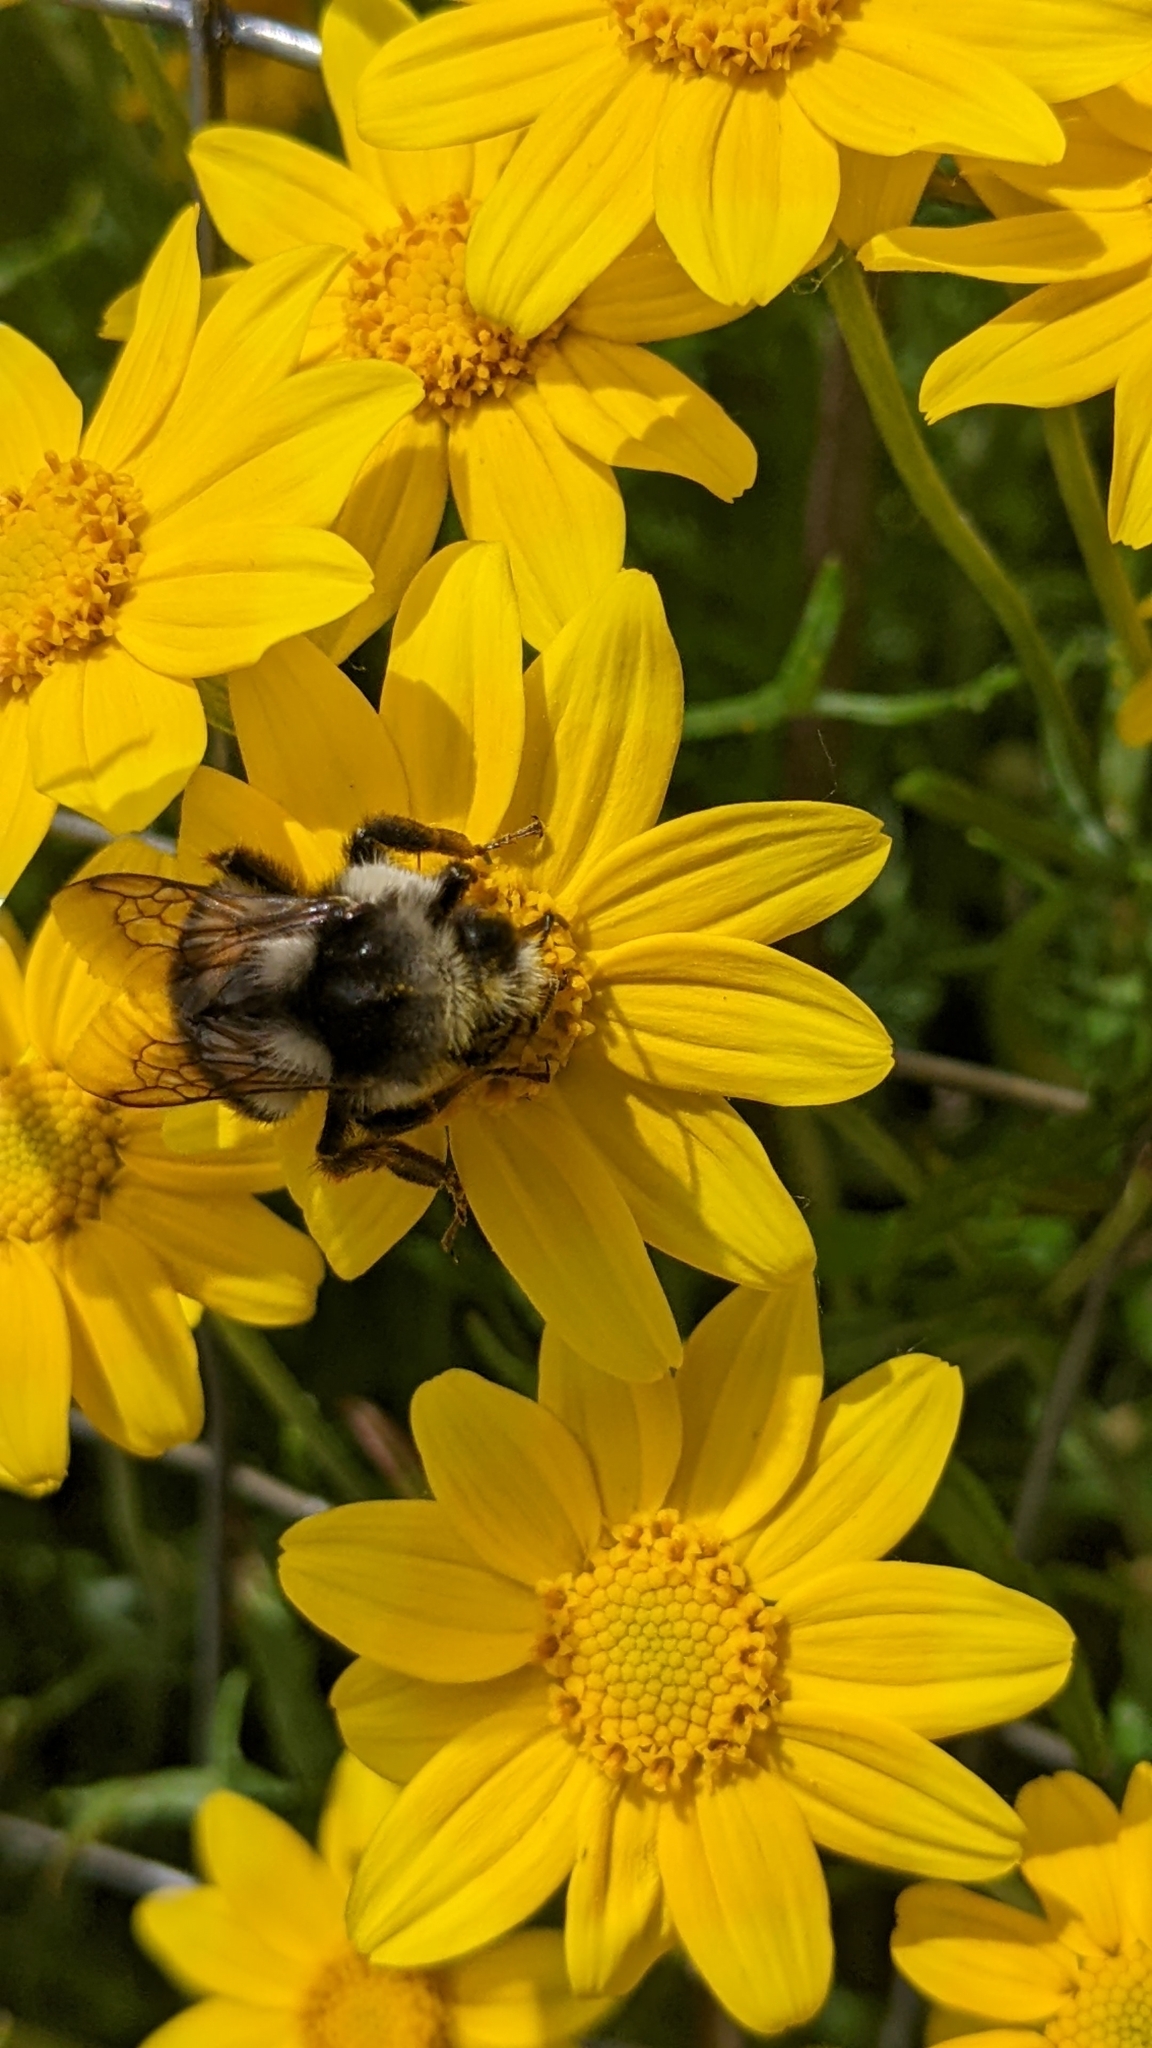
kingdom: Animalia
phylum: Arthropoda
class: Insecta
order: Hymenoptera
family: Apidae
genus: Bombus
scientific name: Bombus vancouverensis
